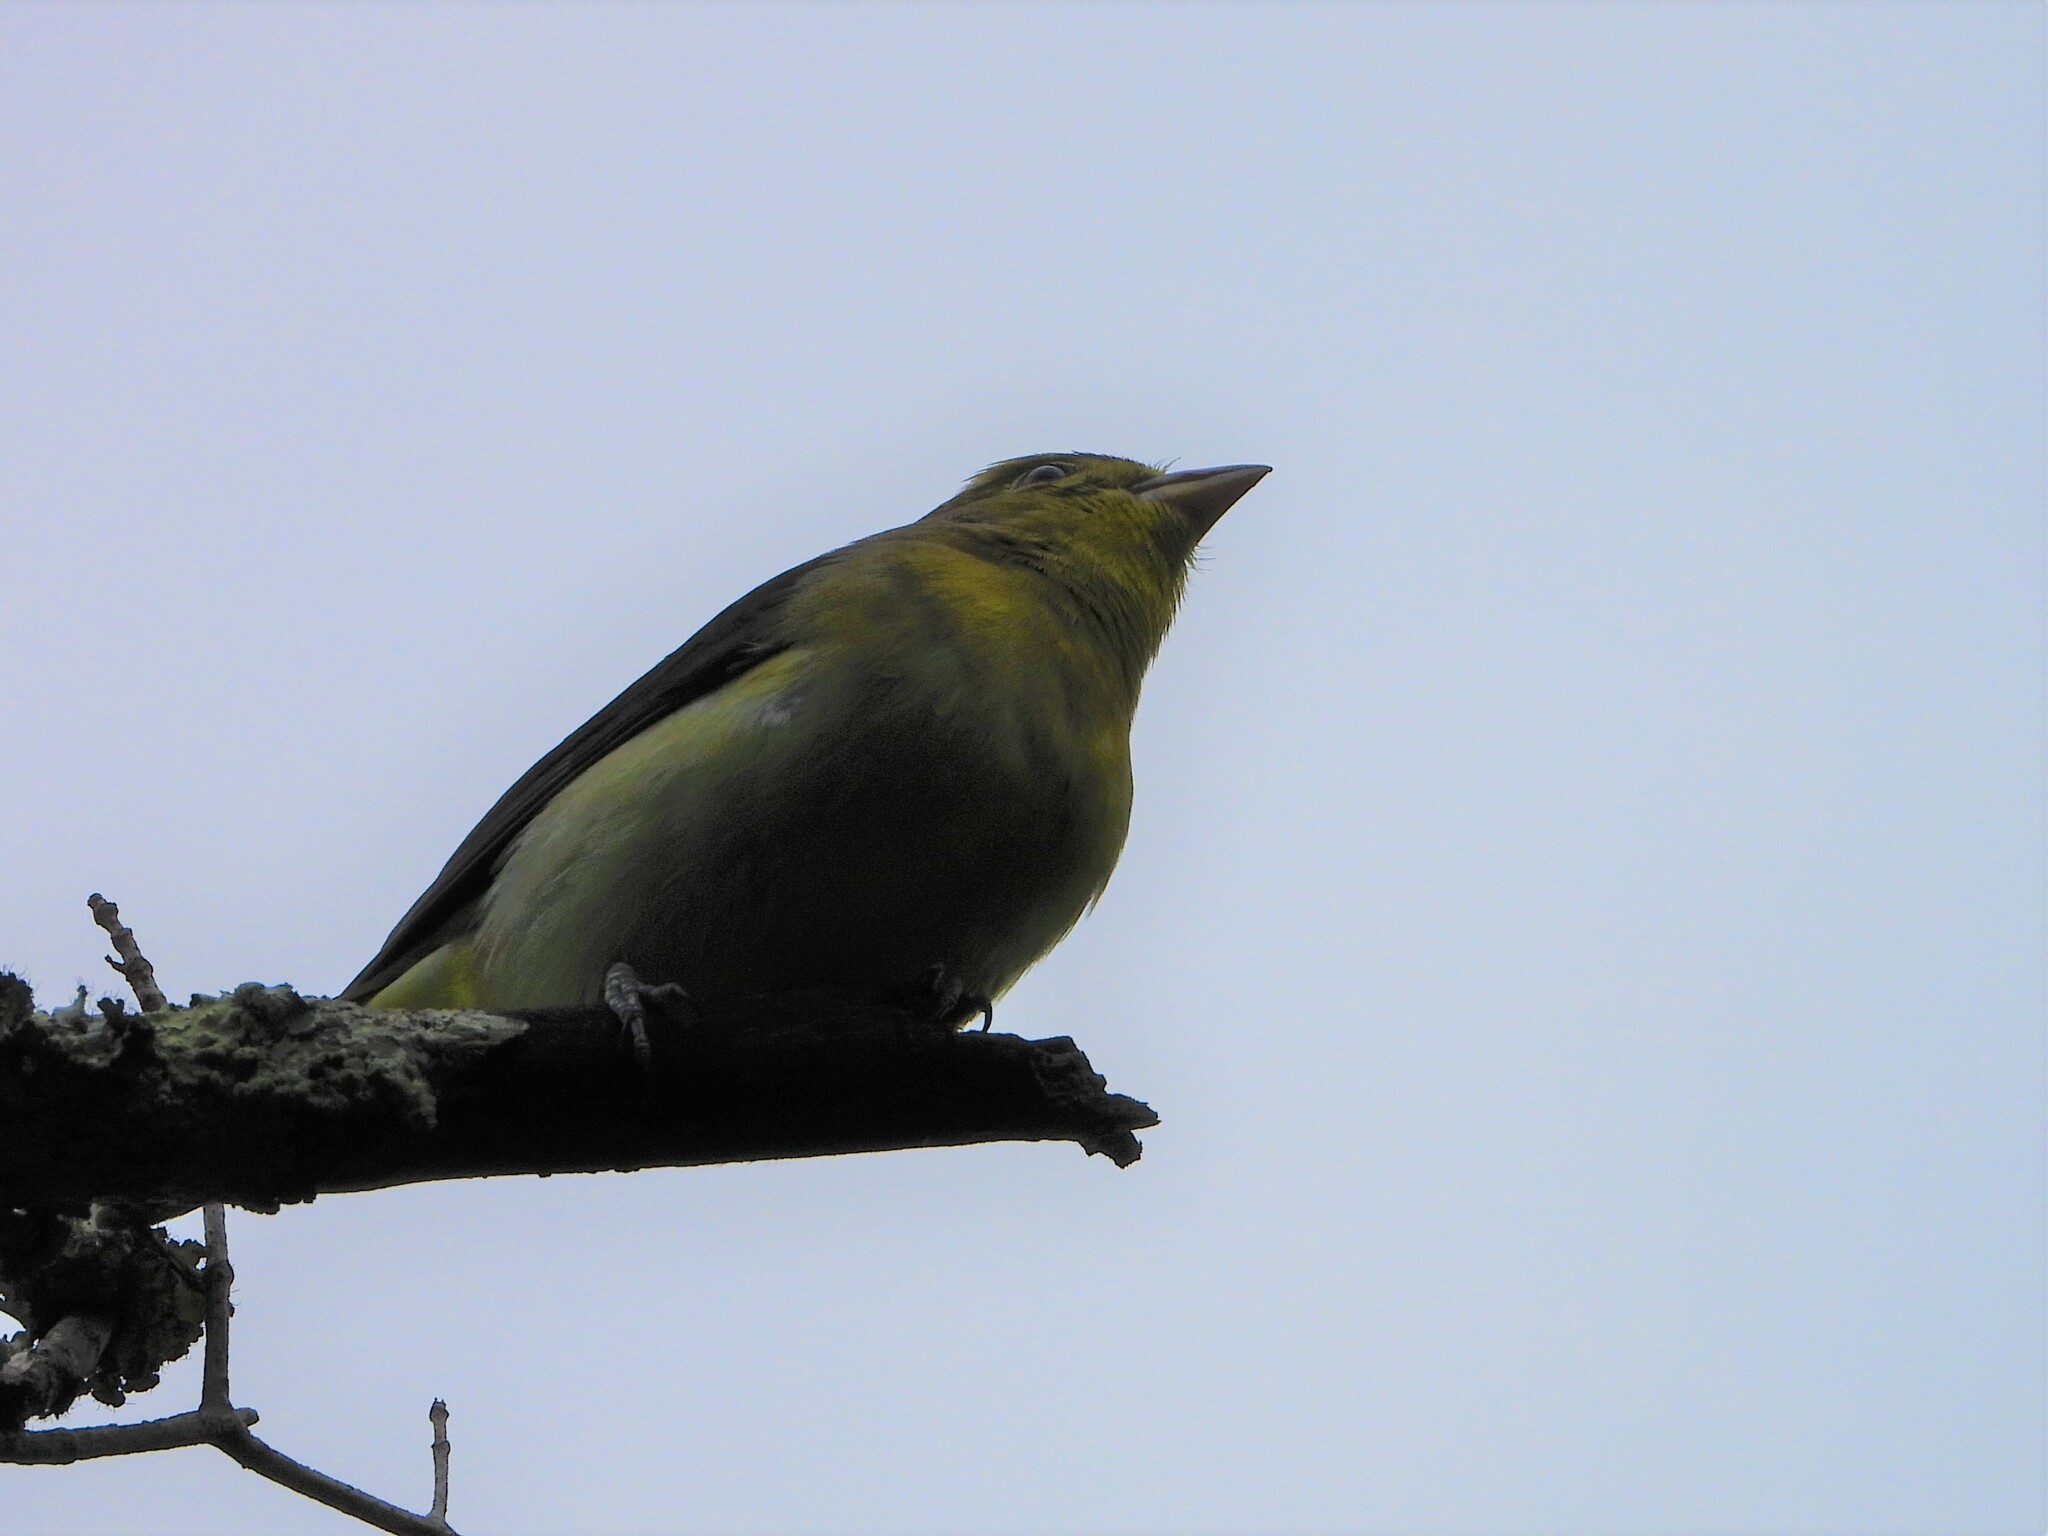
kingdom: Animalia
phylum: Chordata
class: Aves
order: Passeriformes
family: Cardinalidae
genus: Piranga
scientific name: Piranga olivacea
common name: Scarlet tanager
